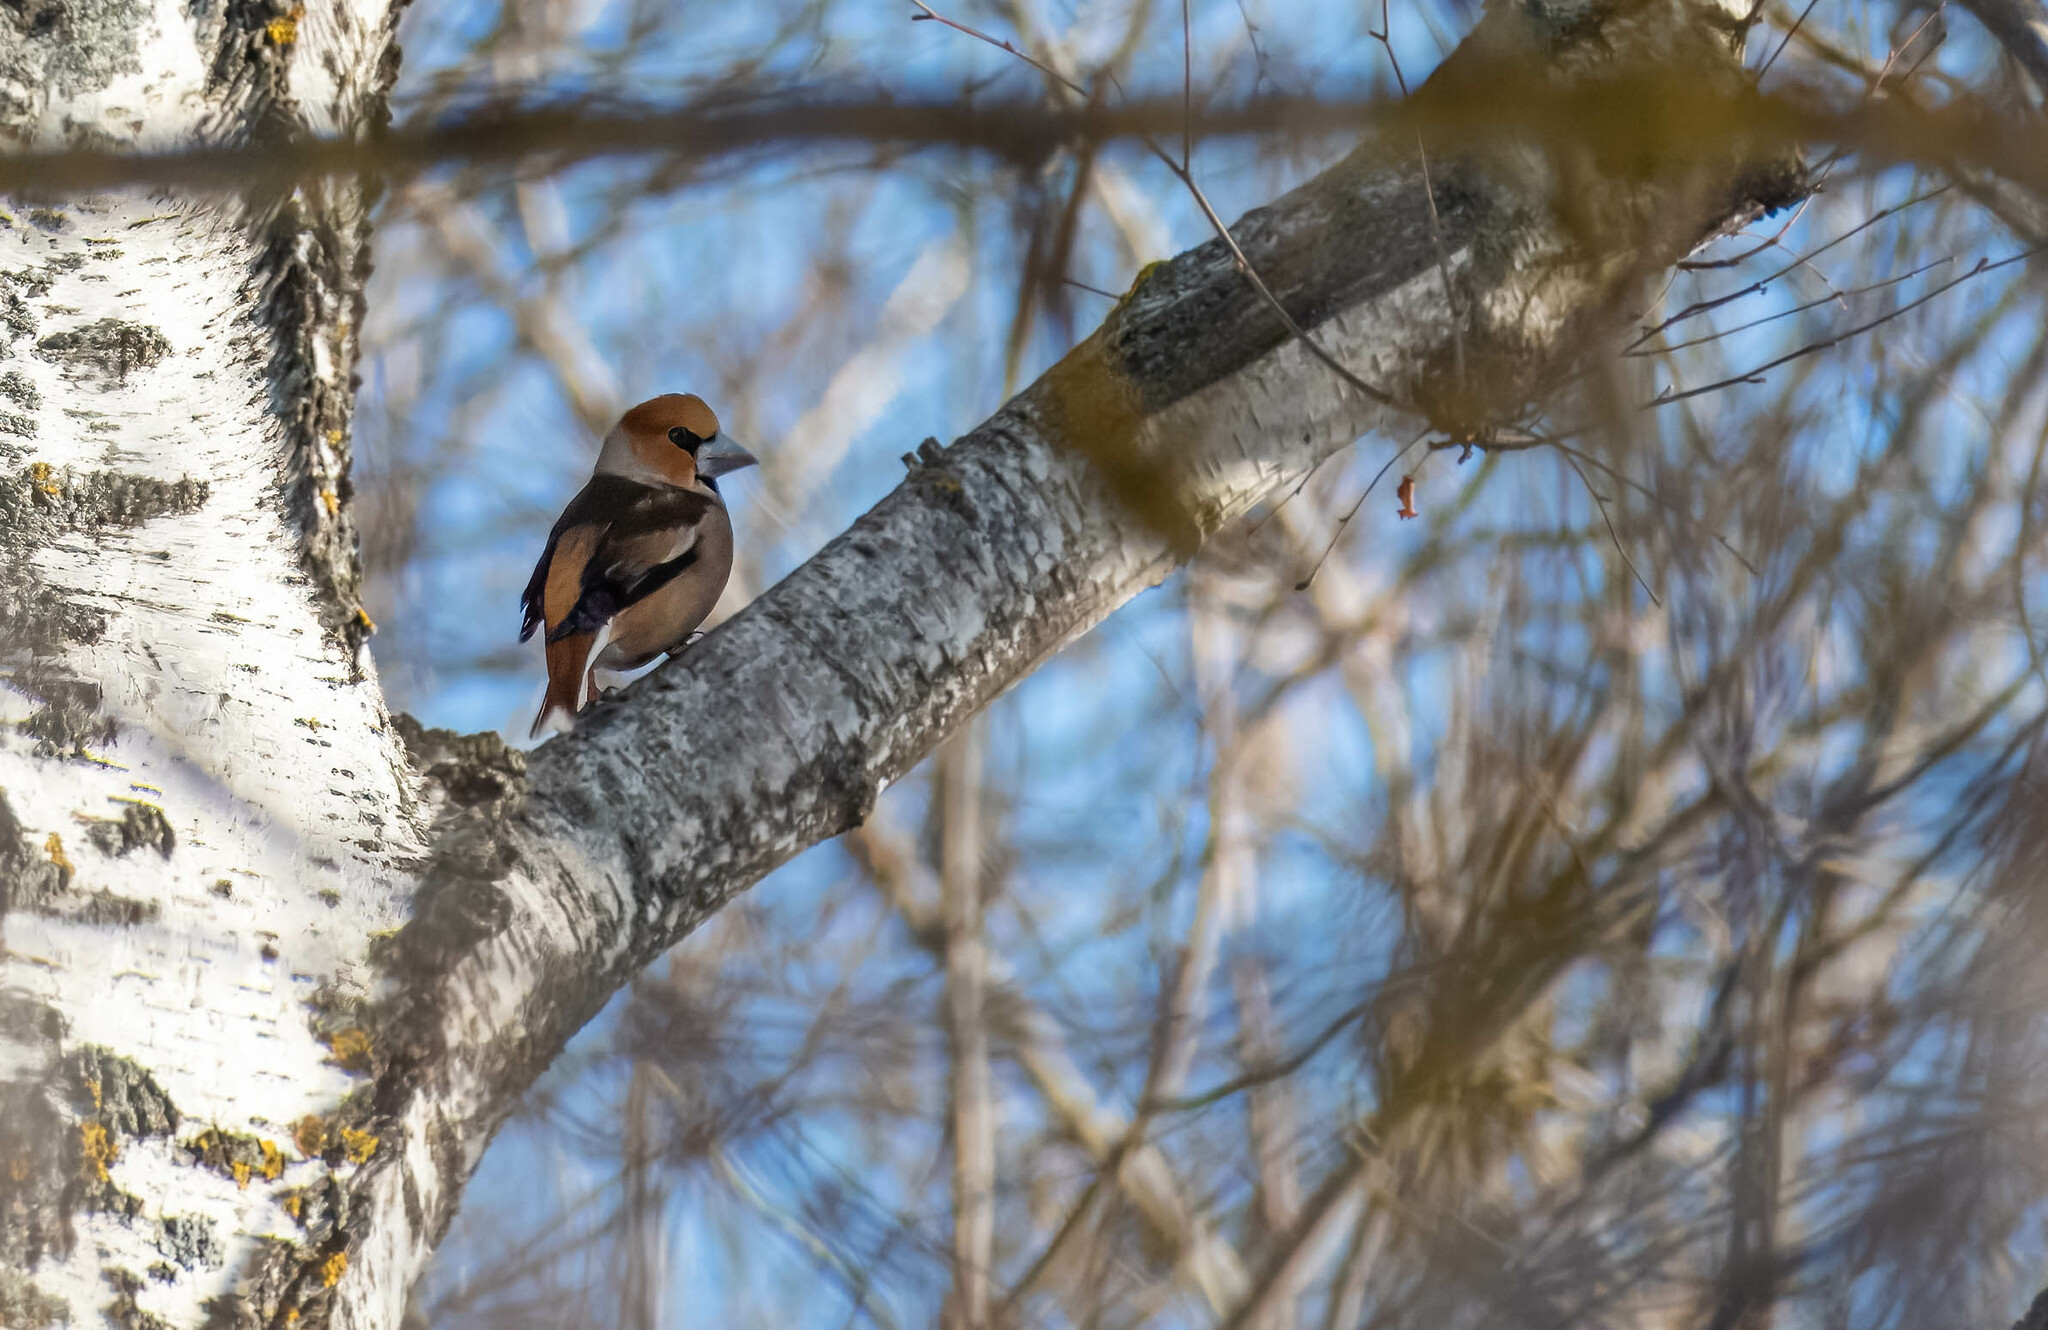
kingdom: Animalia
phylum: Chordata
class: Aves
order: Passeriformes
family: Fringillidae
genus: Coccothraustes
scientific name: Coccothraustes coccothraustes
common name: Hawfinch
